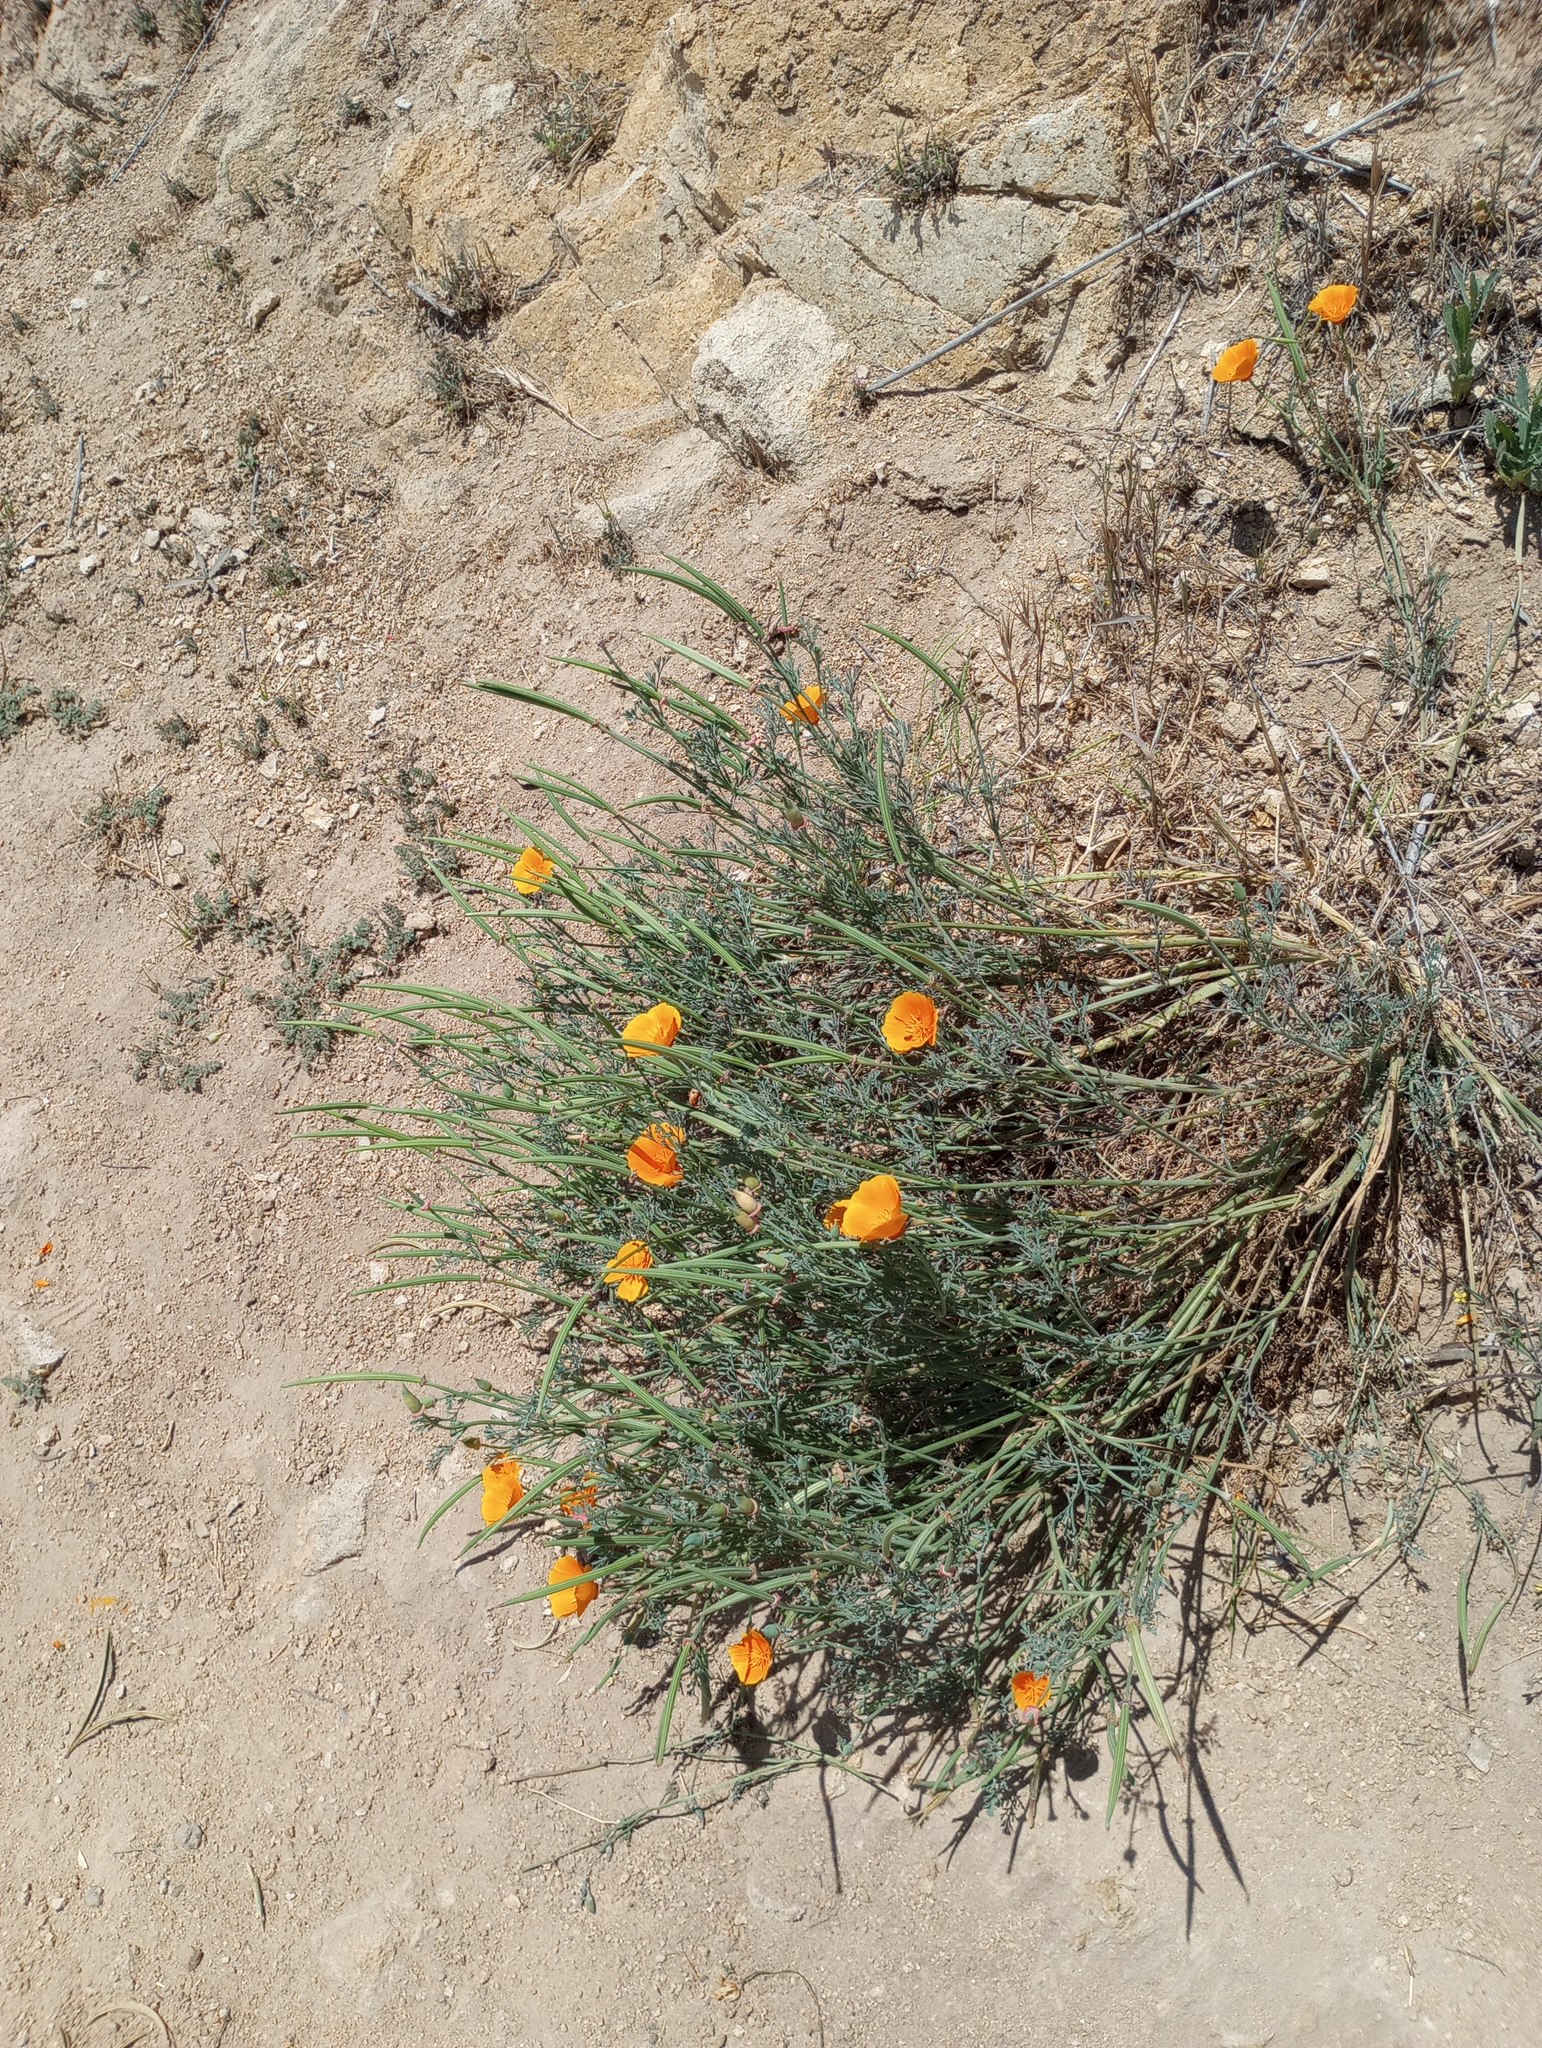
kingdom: Plantae
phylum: Tracheophyta
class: Magnoliopsida
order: Ranunculales
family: Papaveraceae
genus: Eschscholzia
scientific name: Eschscholzia californica
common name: California poppy
